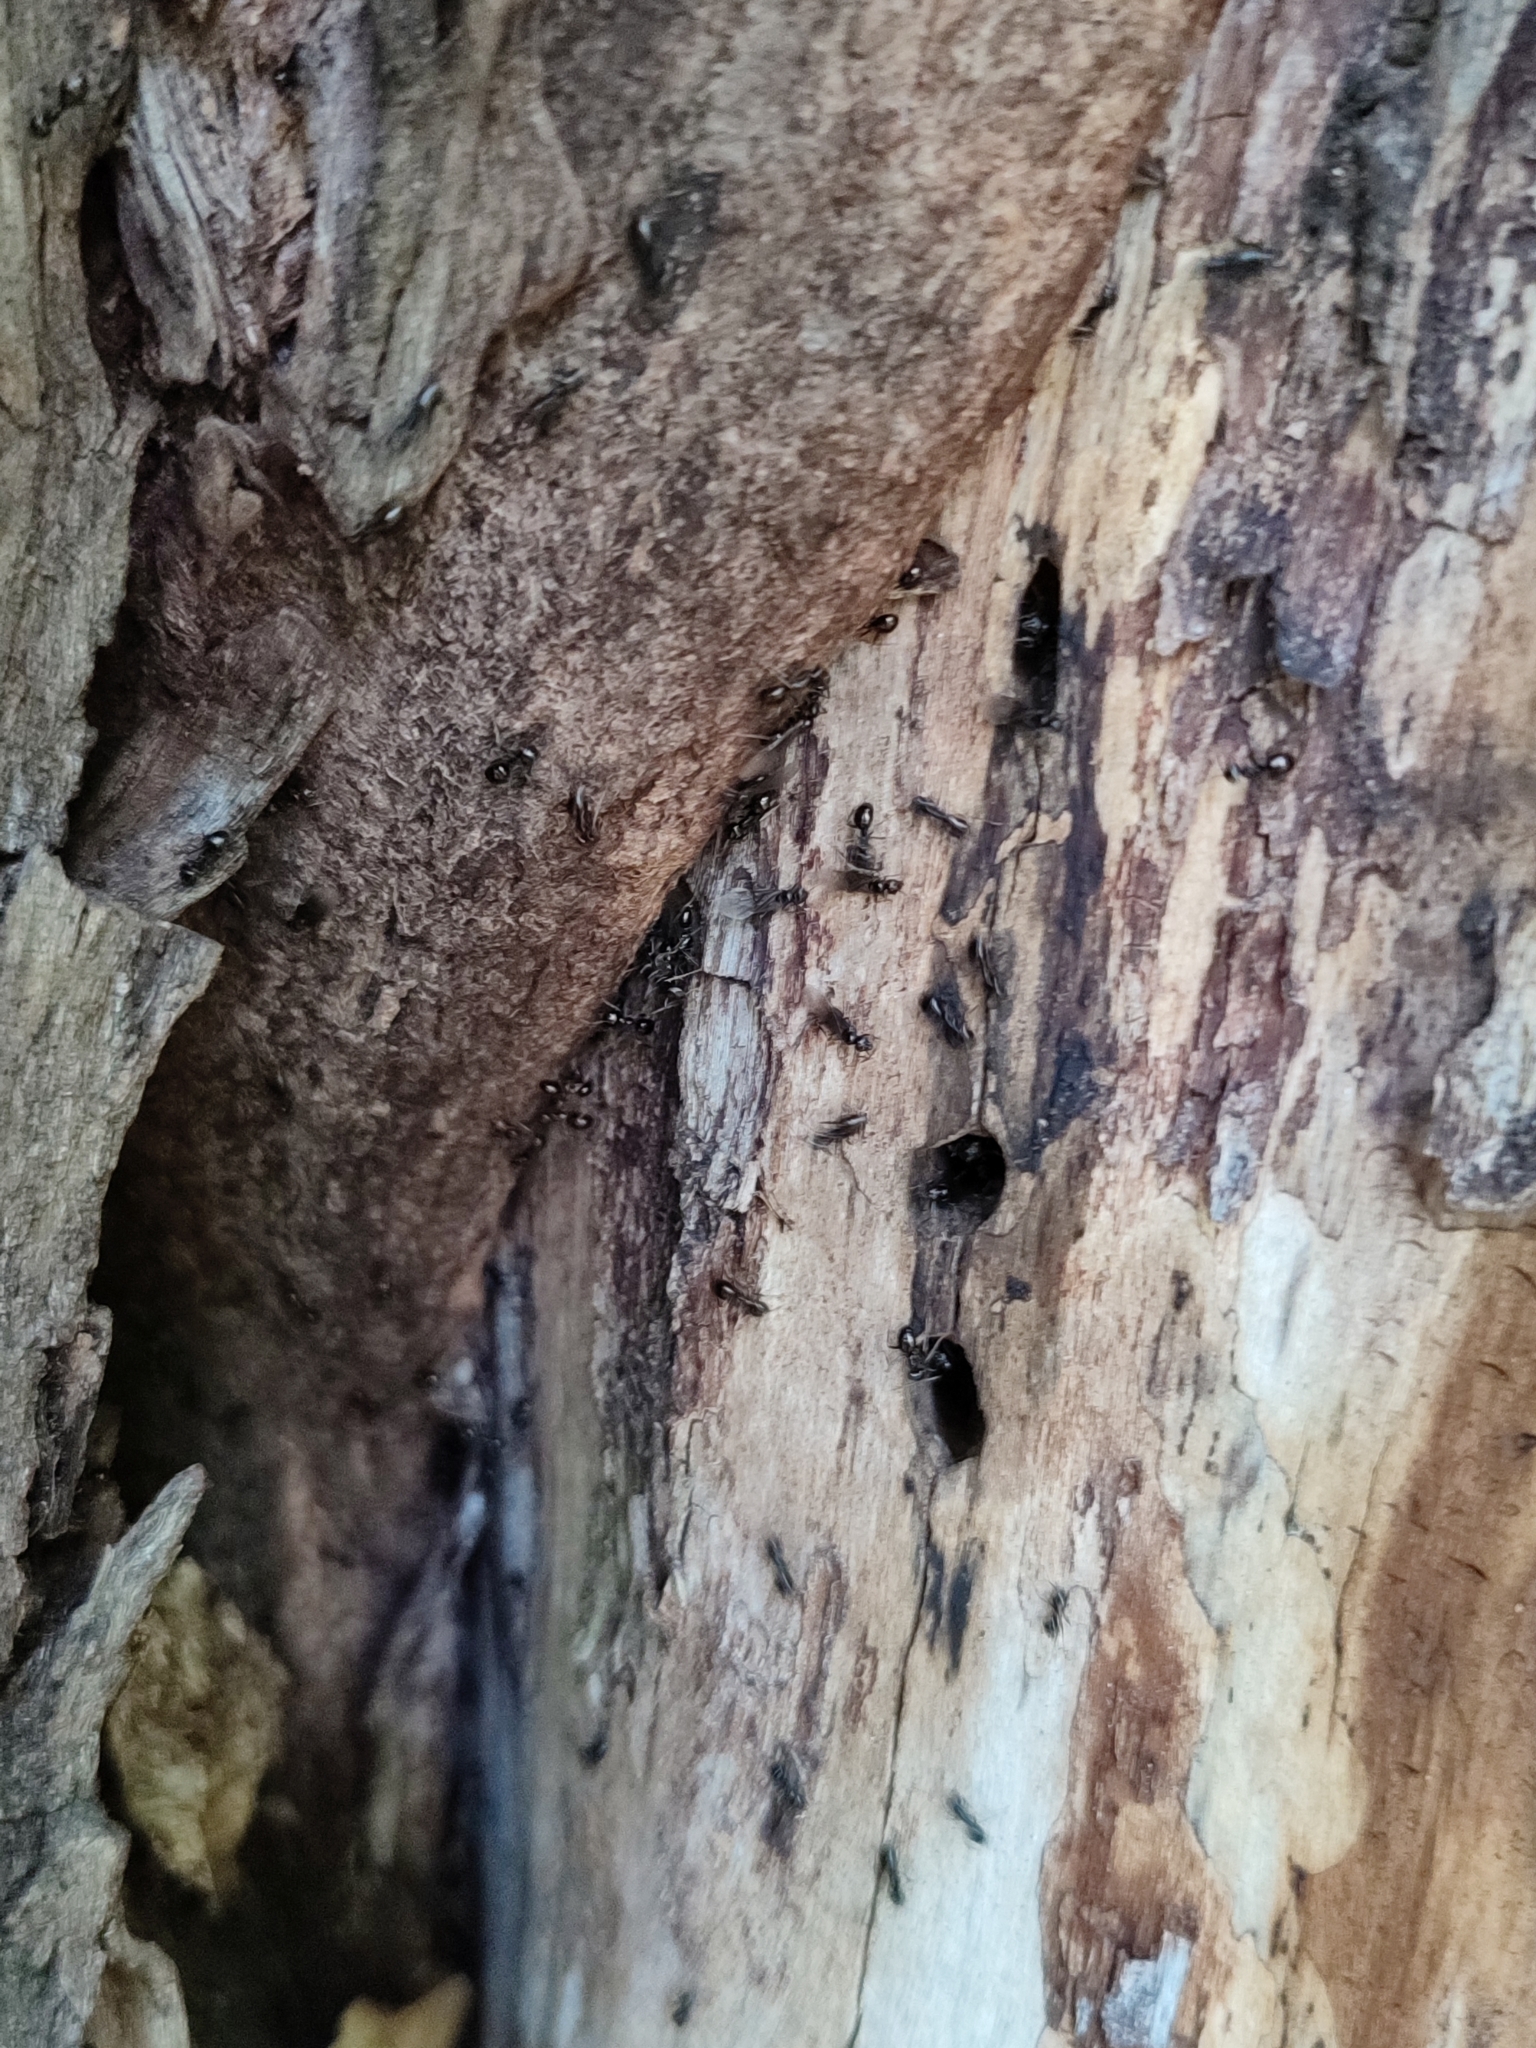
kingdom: Animalia
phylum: Arthropoda
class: Insecta
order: Hymenoptera
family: Formicidae
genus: Lasius
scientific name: Lasius fuliginosus
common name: Jet ant
